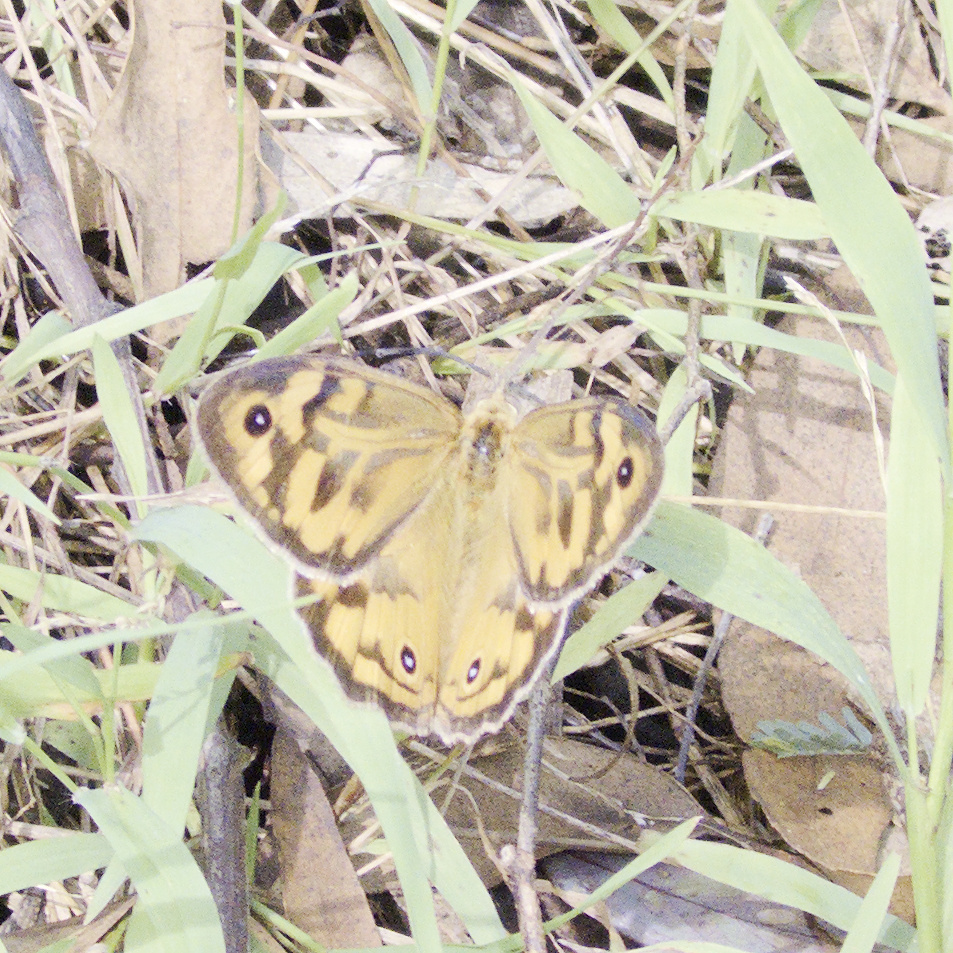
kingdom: Animalia
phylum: Arthropoda
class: Insecta
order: Lepidoptera
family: Nymphalidae
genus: Heteronympha
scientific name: Heteronympha merope
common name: Common brown
